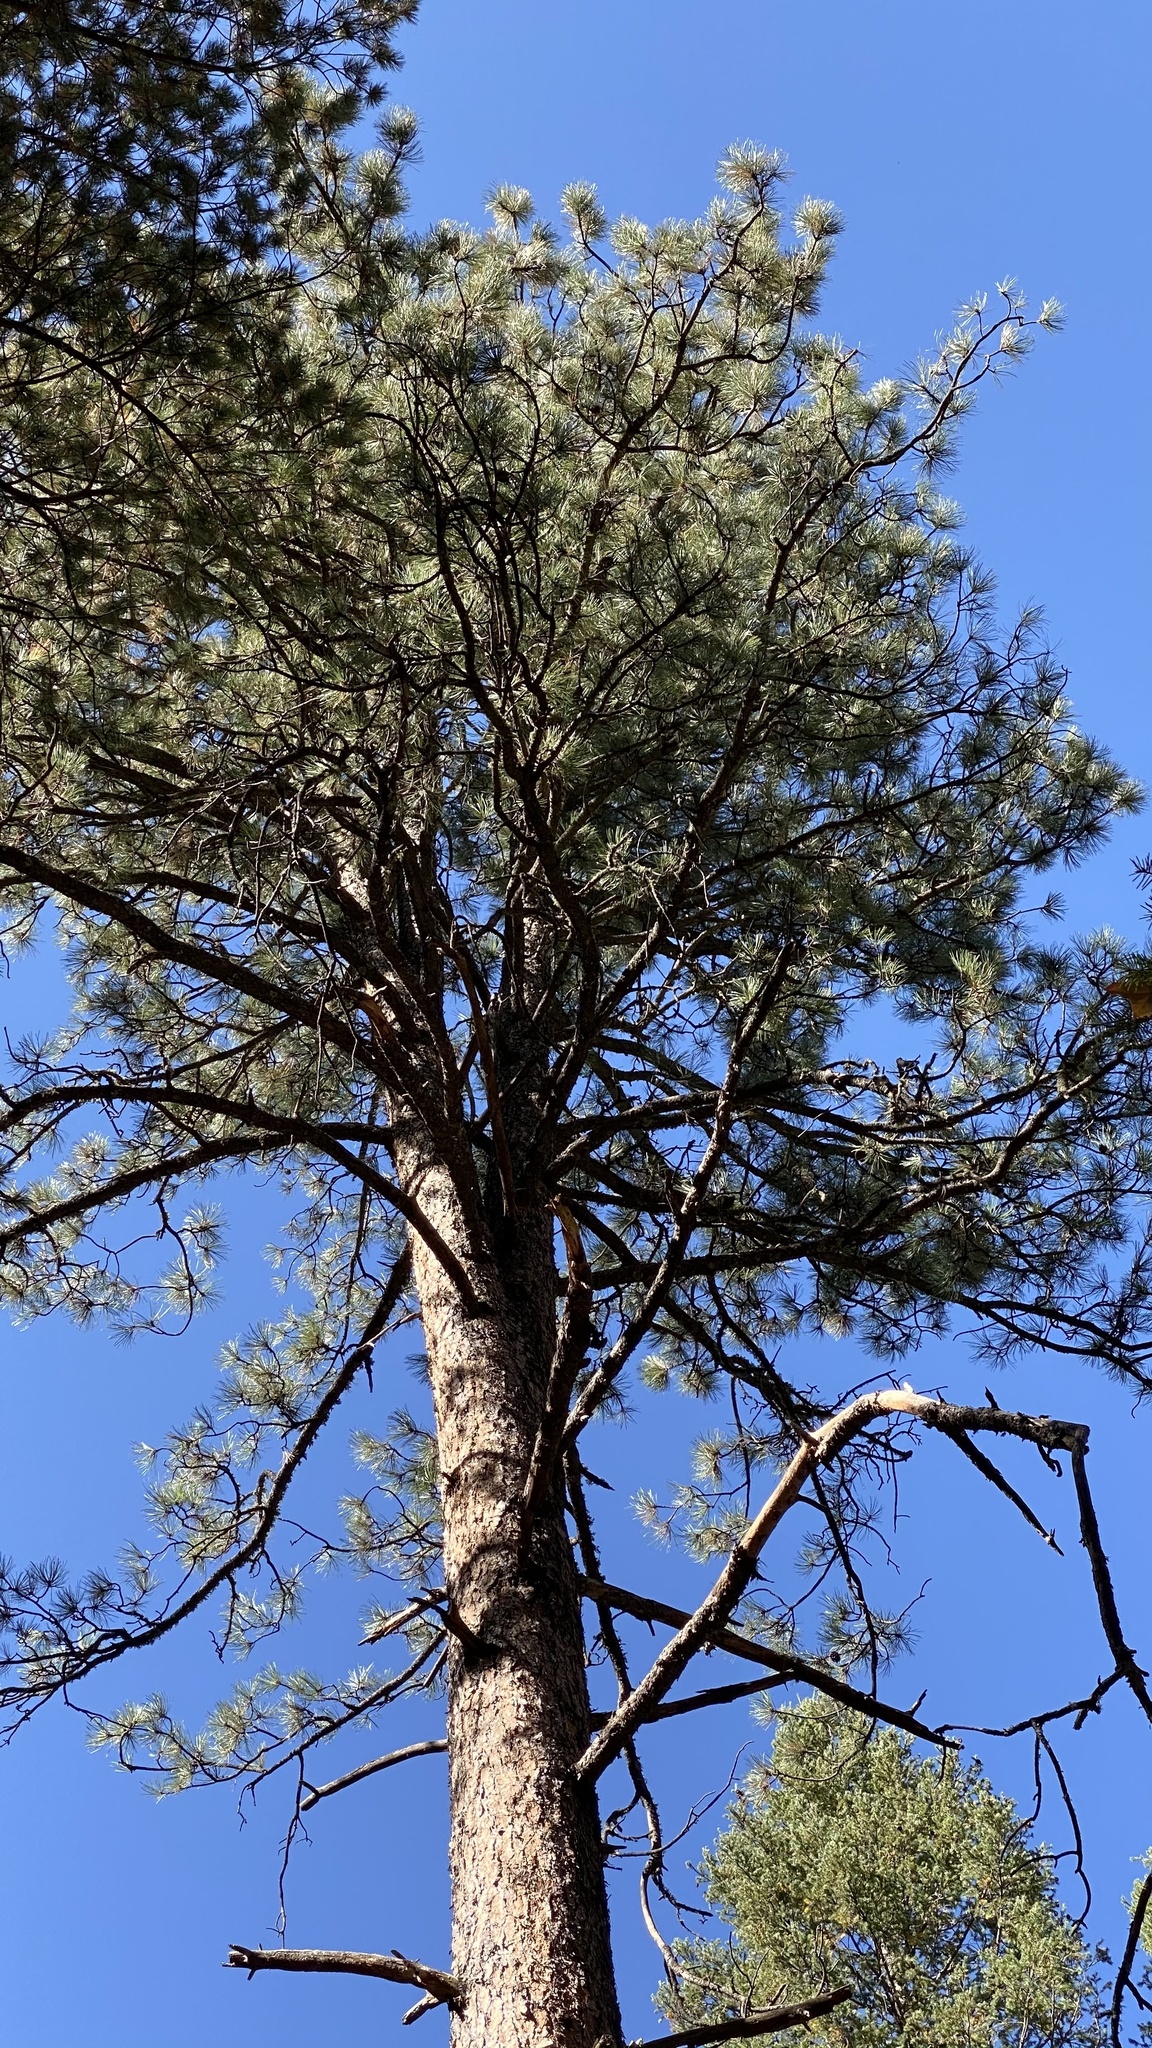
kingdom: Plantae
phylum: Tracheophyta
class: Pinopsida
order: Pinales
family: Pinaceae
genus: Pinus
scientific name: Pinus ponderosa
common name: Western yellow-pine
